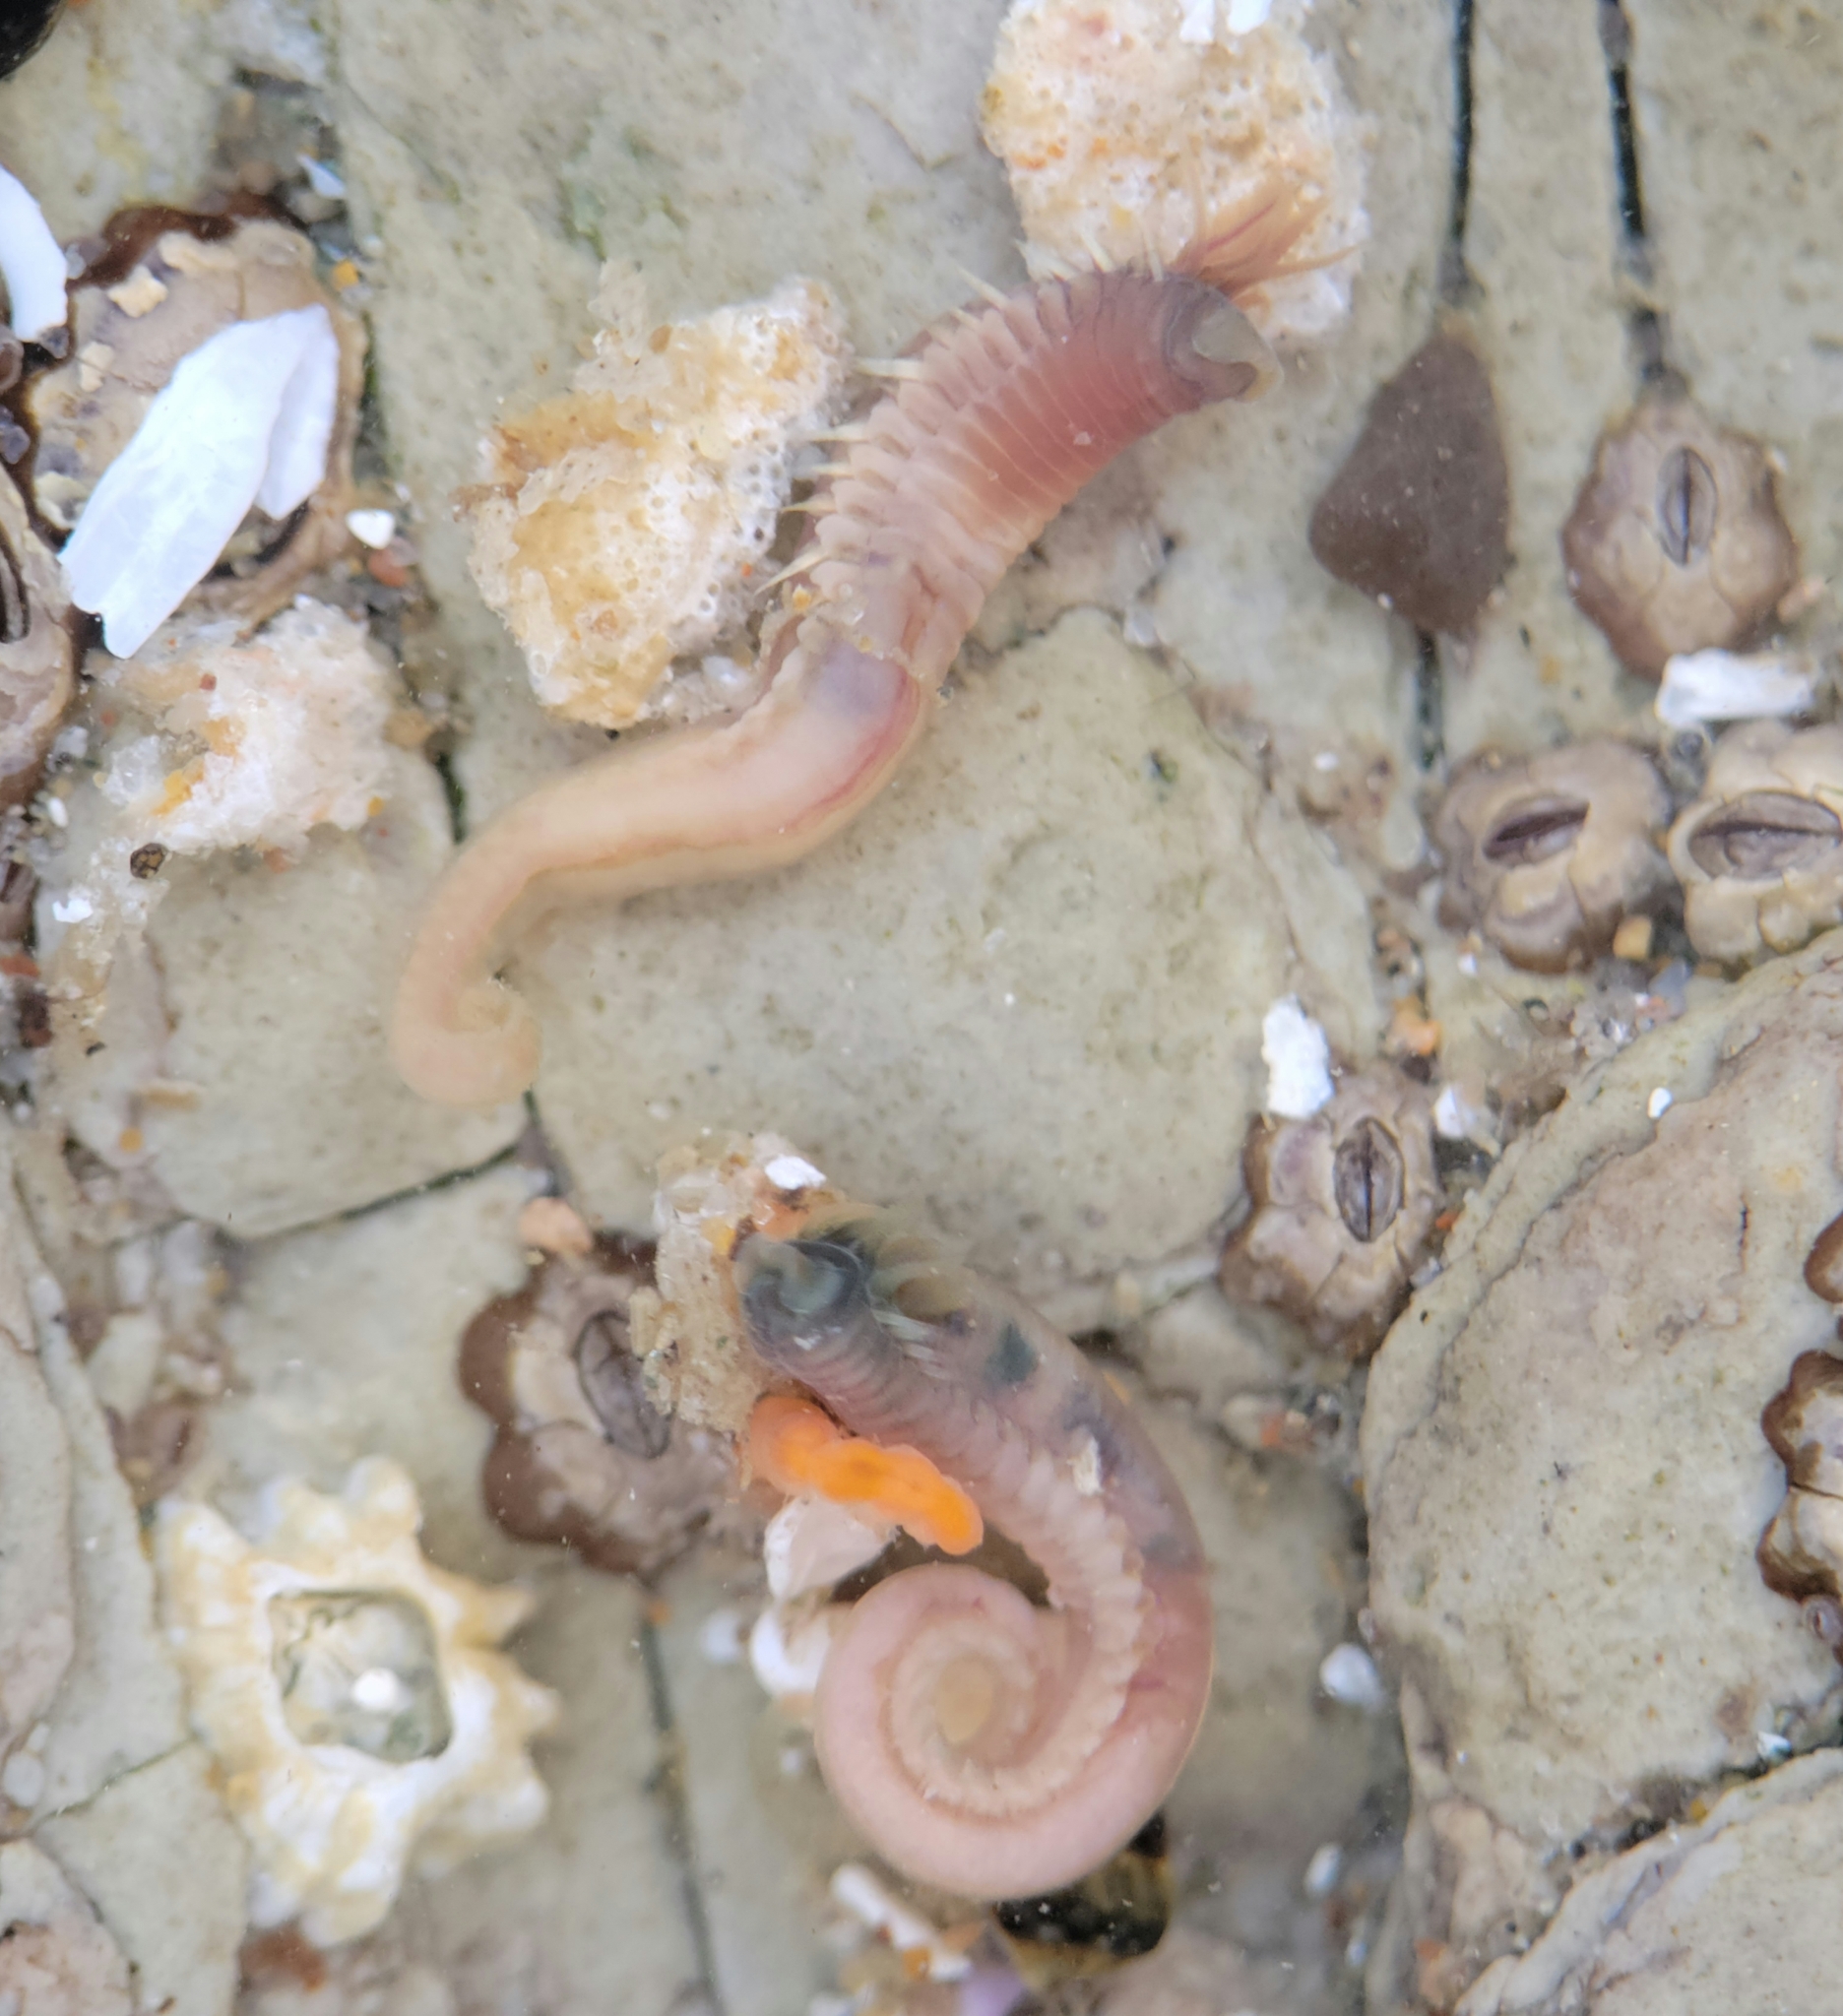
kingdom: Animalia
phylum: Annelida
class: Polychaeta
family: Ampharetidae
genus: Phyllocomus
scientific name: Phyllocomus hiltoni
